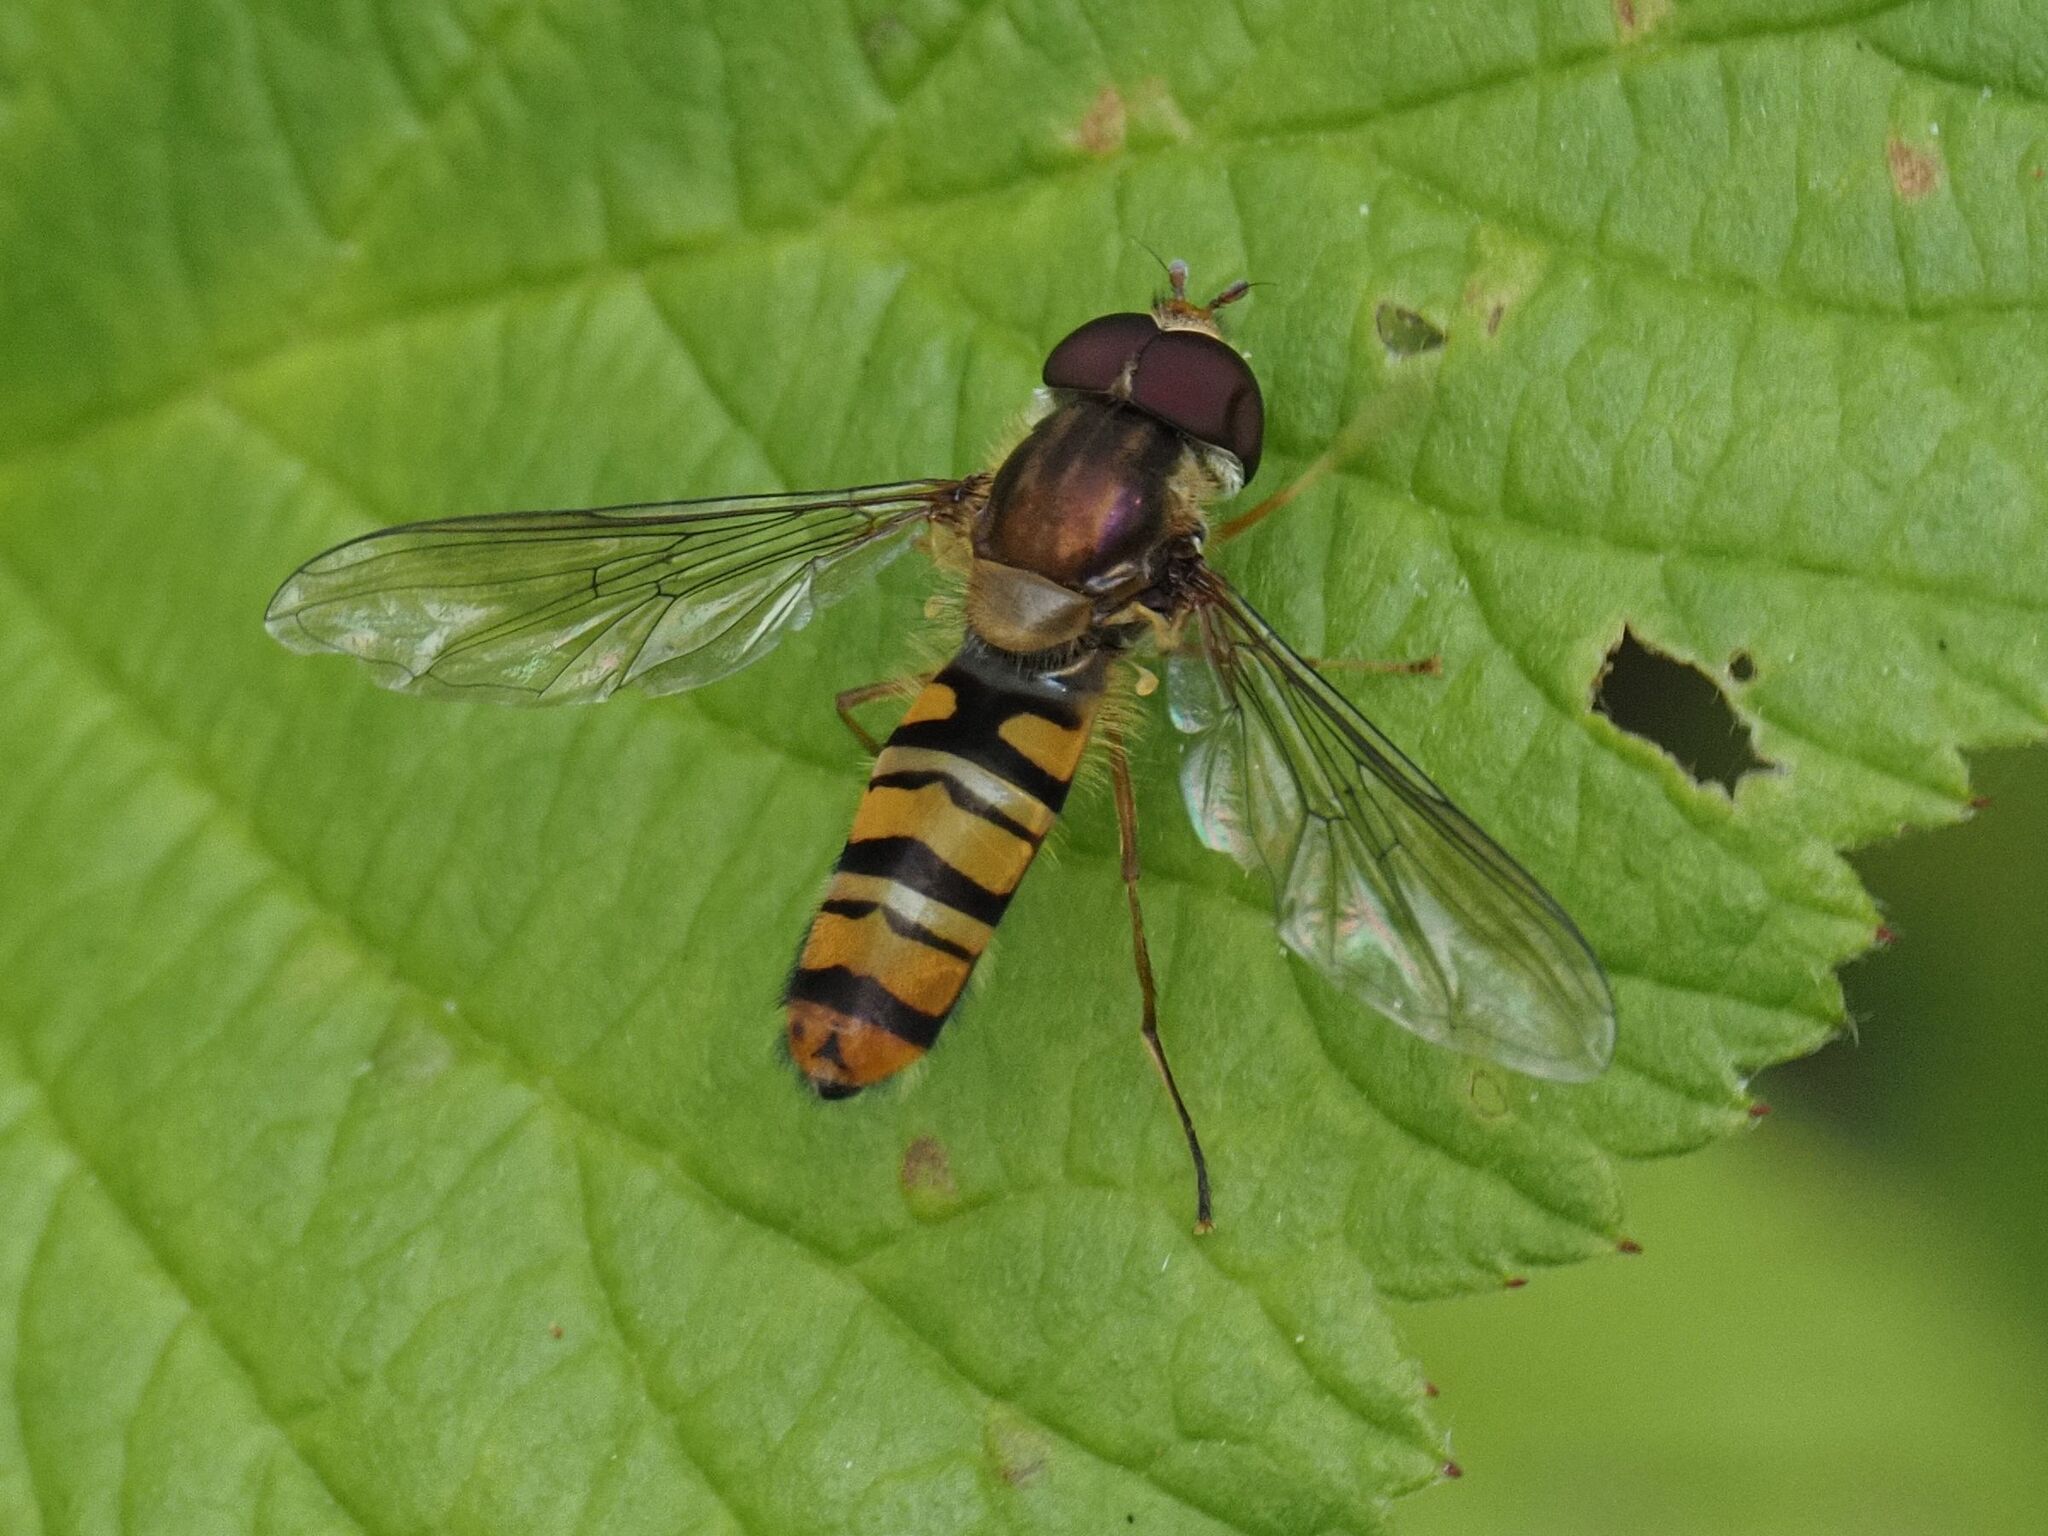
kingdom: Animalia
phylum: Arthropoda
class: Insecta
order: Diptera
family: Syrphidae
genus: Episyrphus
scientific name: Episyrphus balteatus
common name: Marmalade hoverfly
